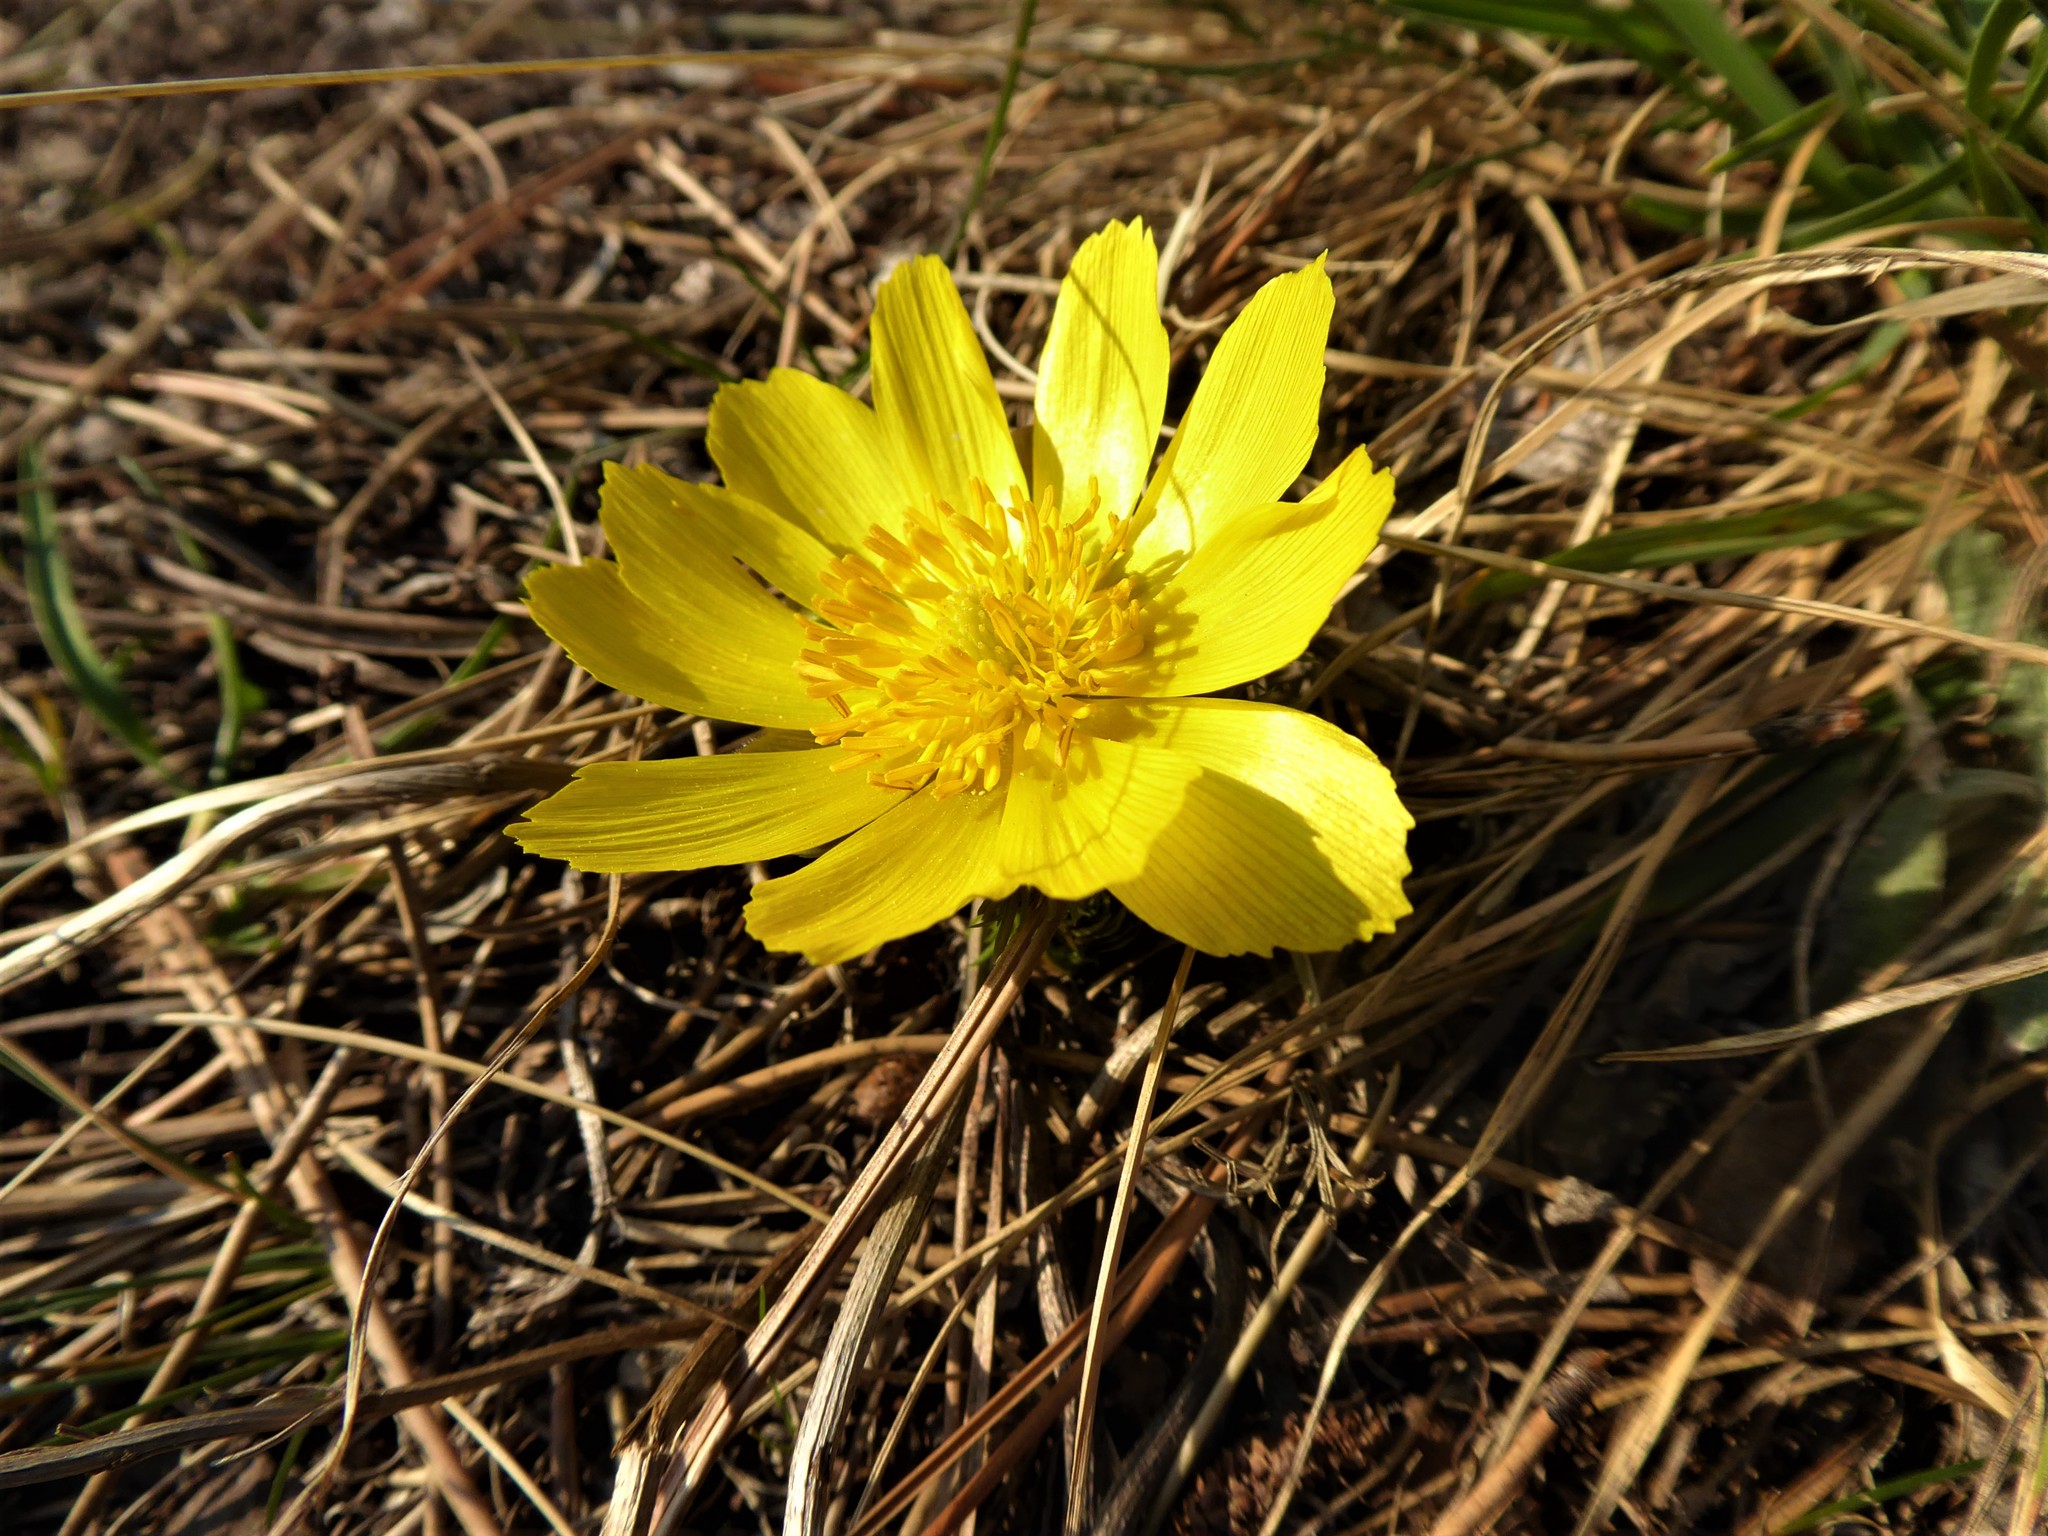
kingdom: Plantae
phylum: Tracheophyta
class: Magnoliopsida
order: Ranunculales
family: Ranunculaceae
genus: Adonis
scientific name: Adonis vernalis
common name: Yellow pheasants-eye
